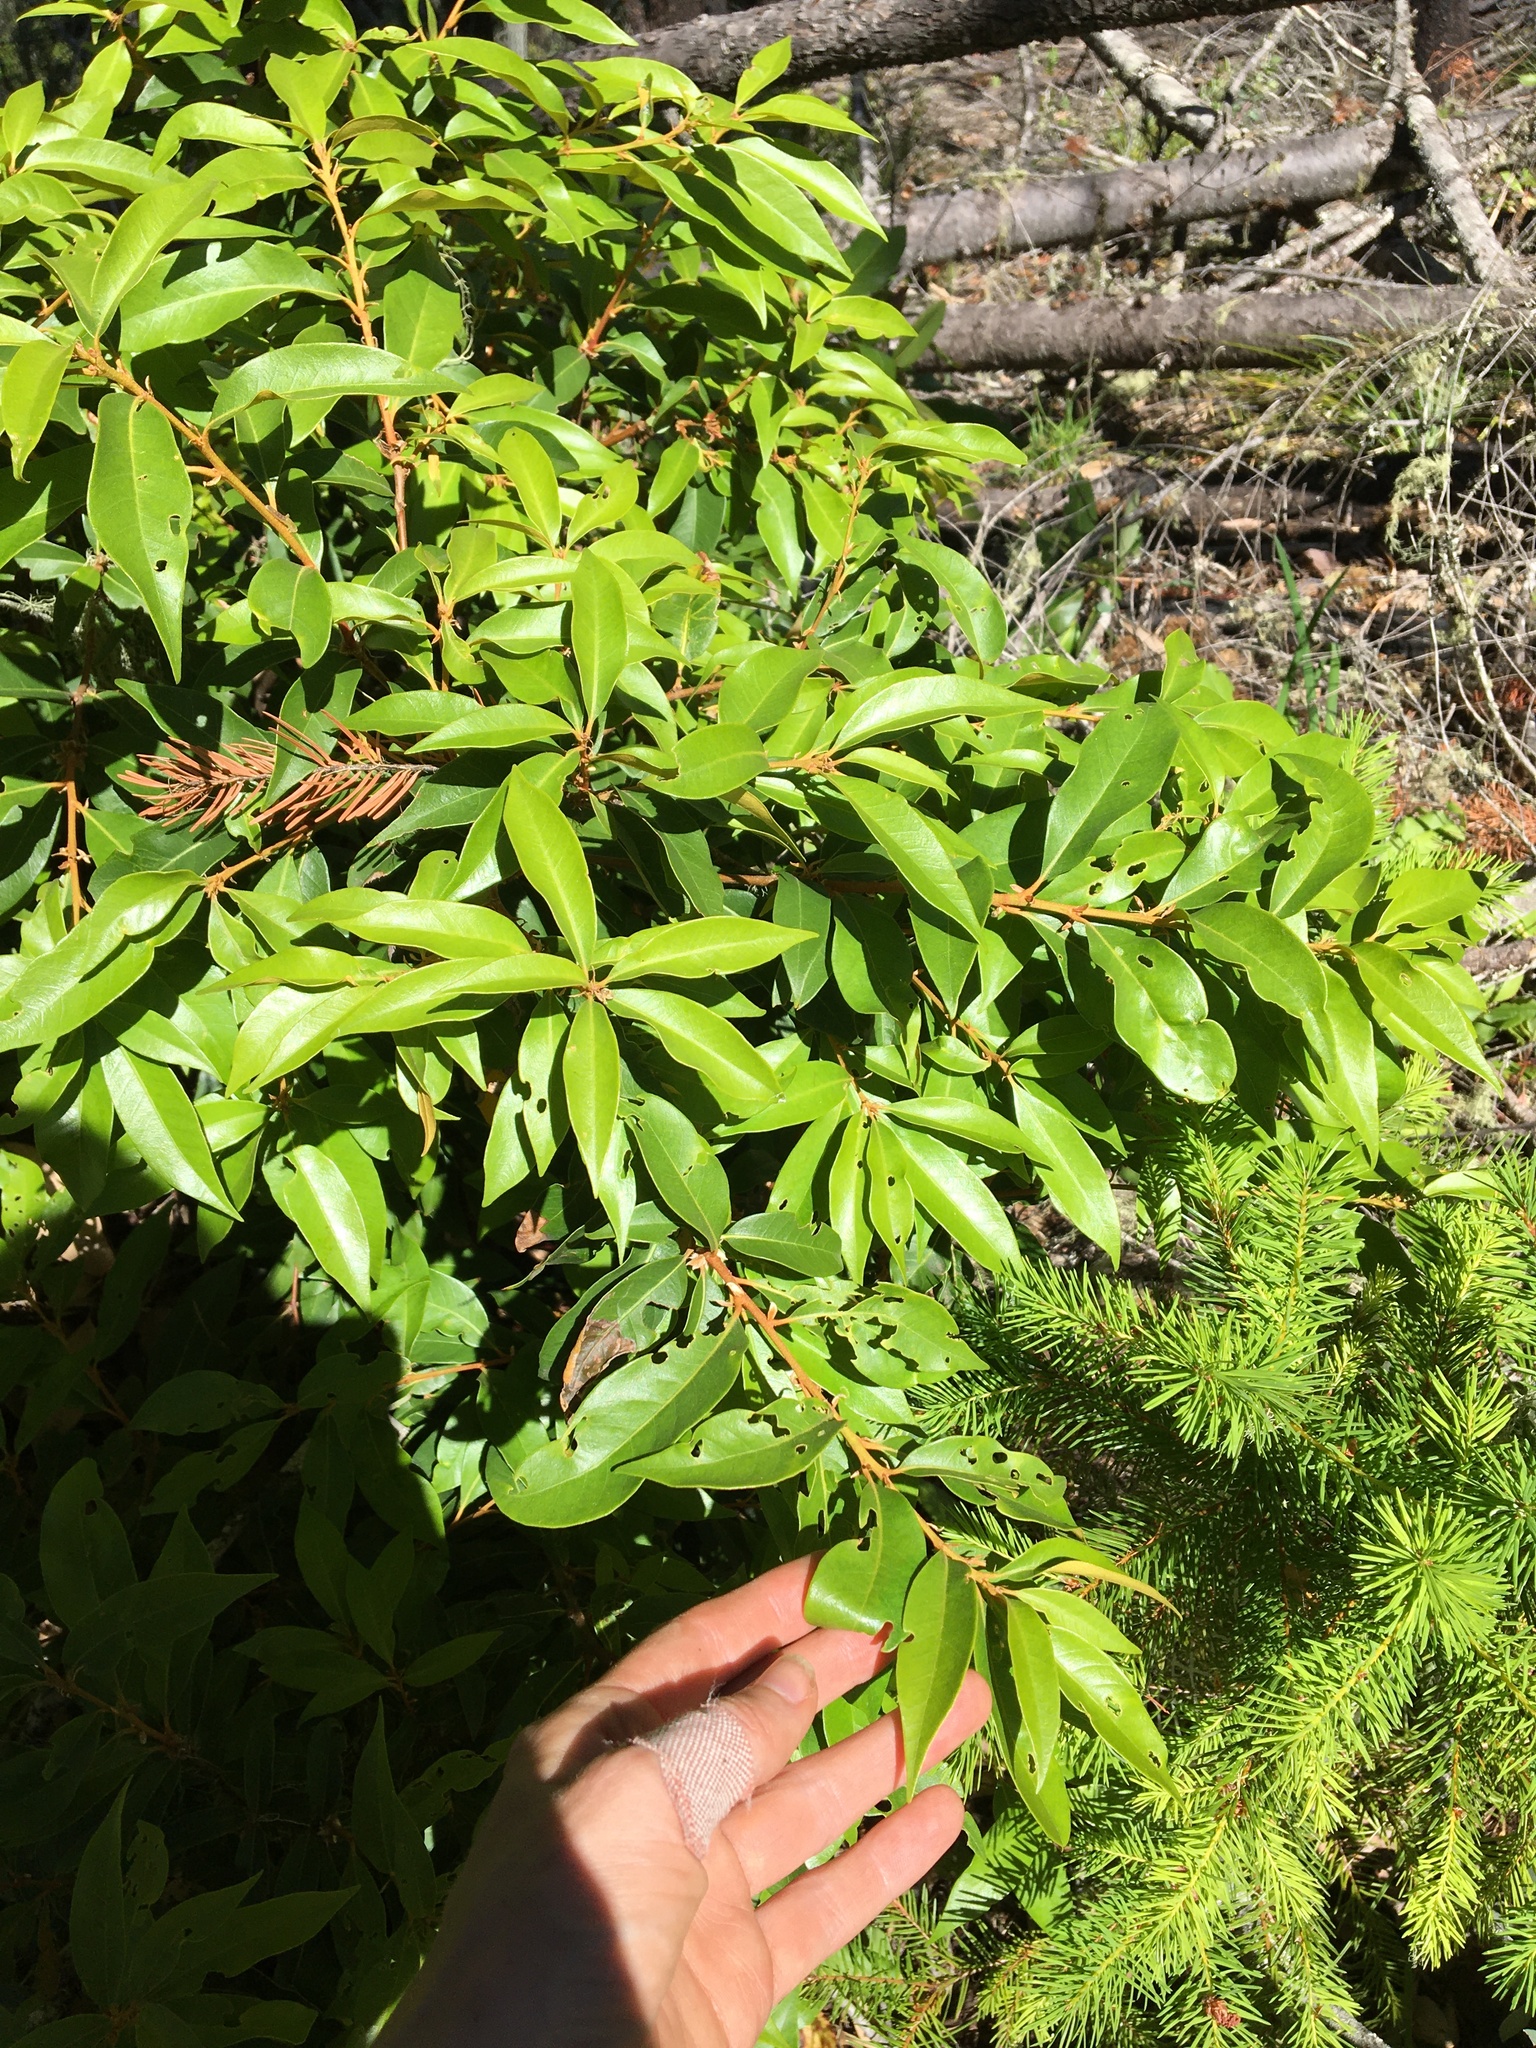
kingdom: Plantae
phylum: Tracheophyta
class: Magnoliopsida
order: Fagales
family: Fagaceae
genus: Chrysolepis
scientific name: Chrysolepis chrysophylla
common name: Giant chinquapin
